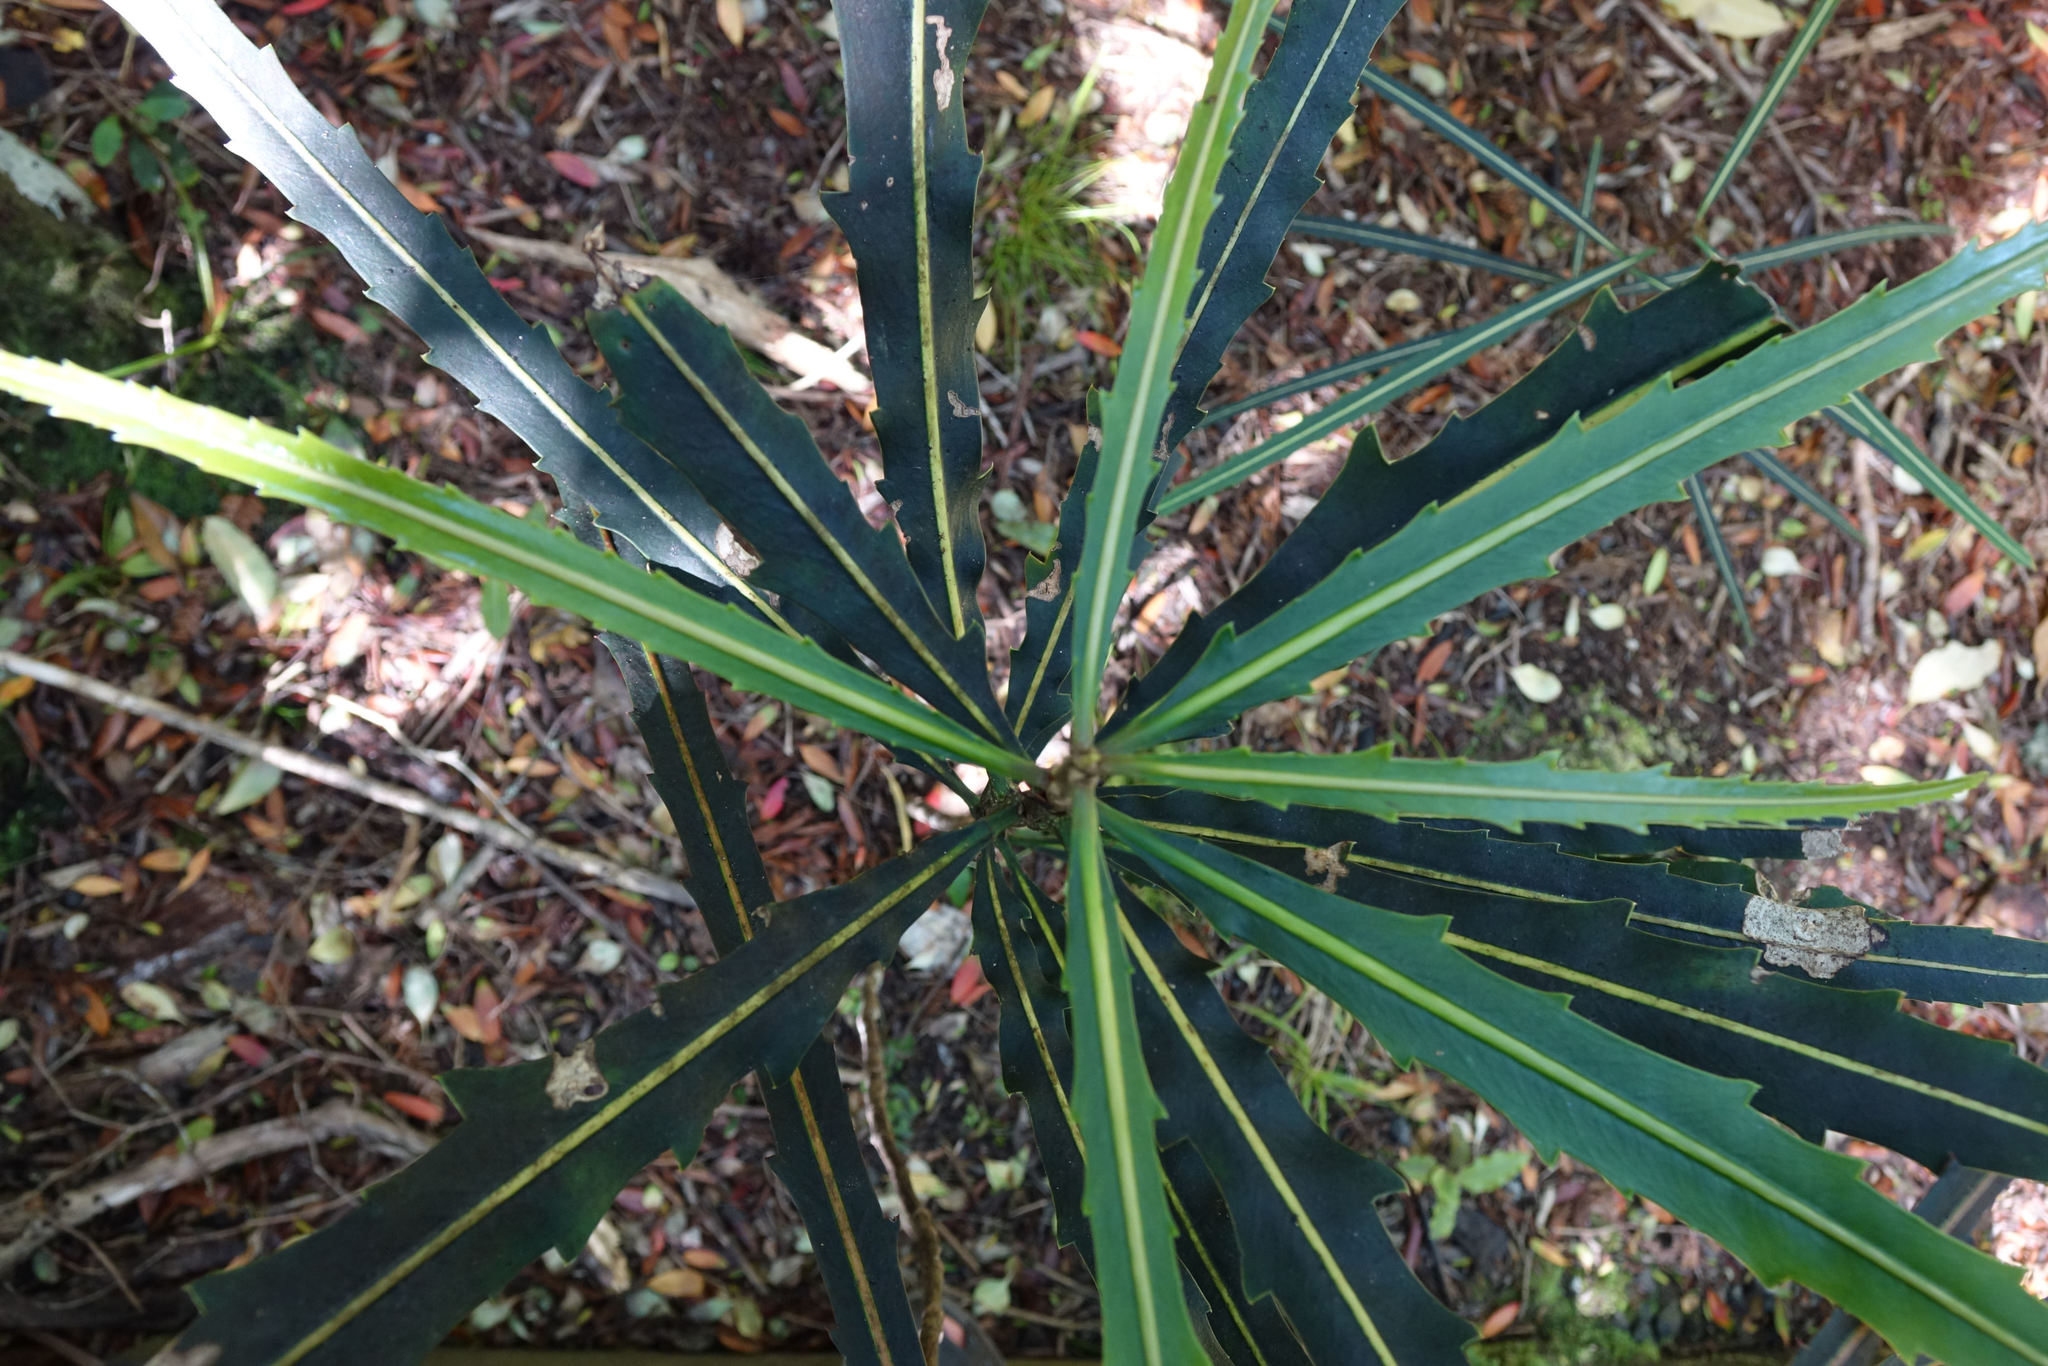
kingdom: Plantae
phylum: Tracheophyta
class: Magnoliopsida
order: Apiales
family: Araliaceae
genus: Pseudopanax
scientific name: Pseudopanax crassifolius
